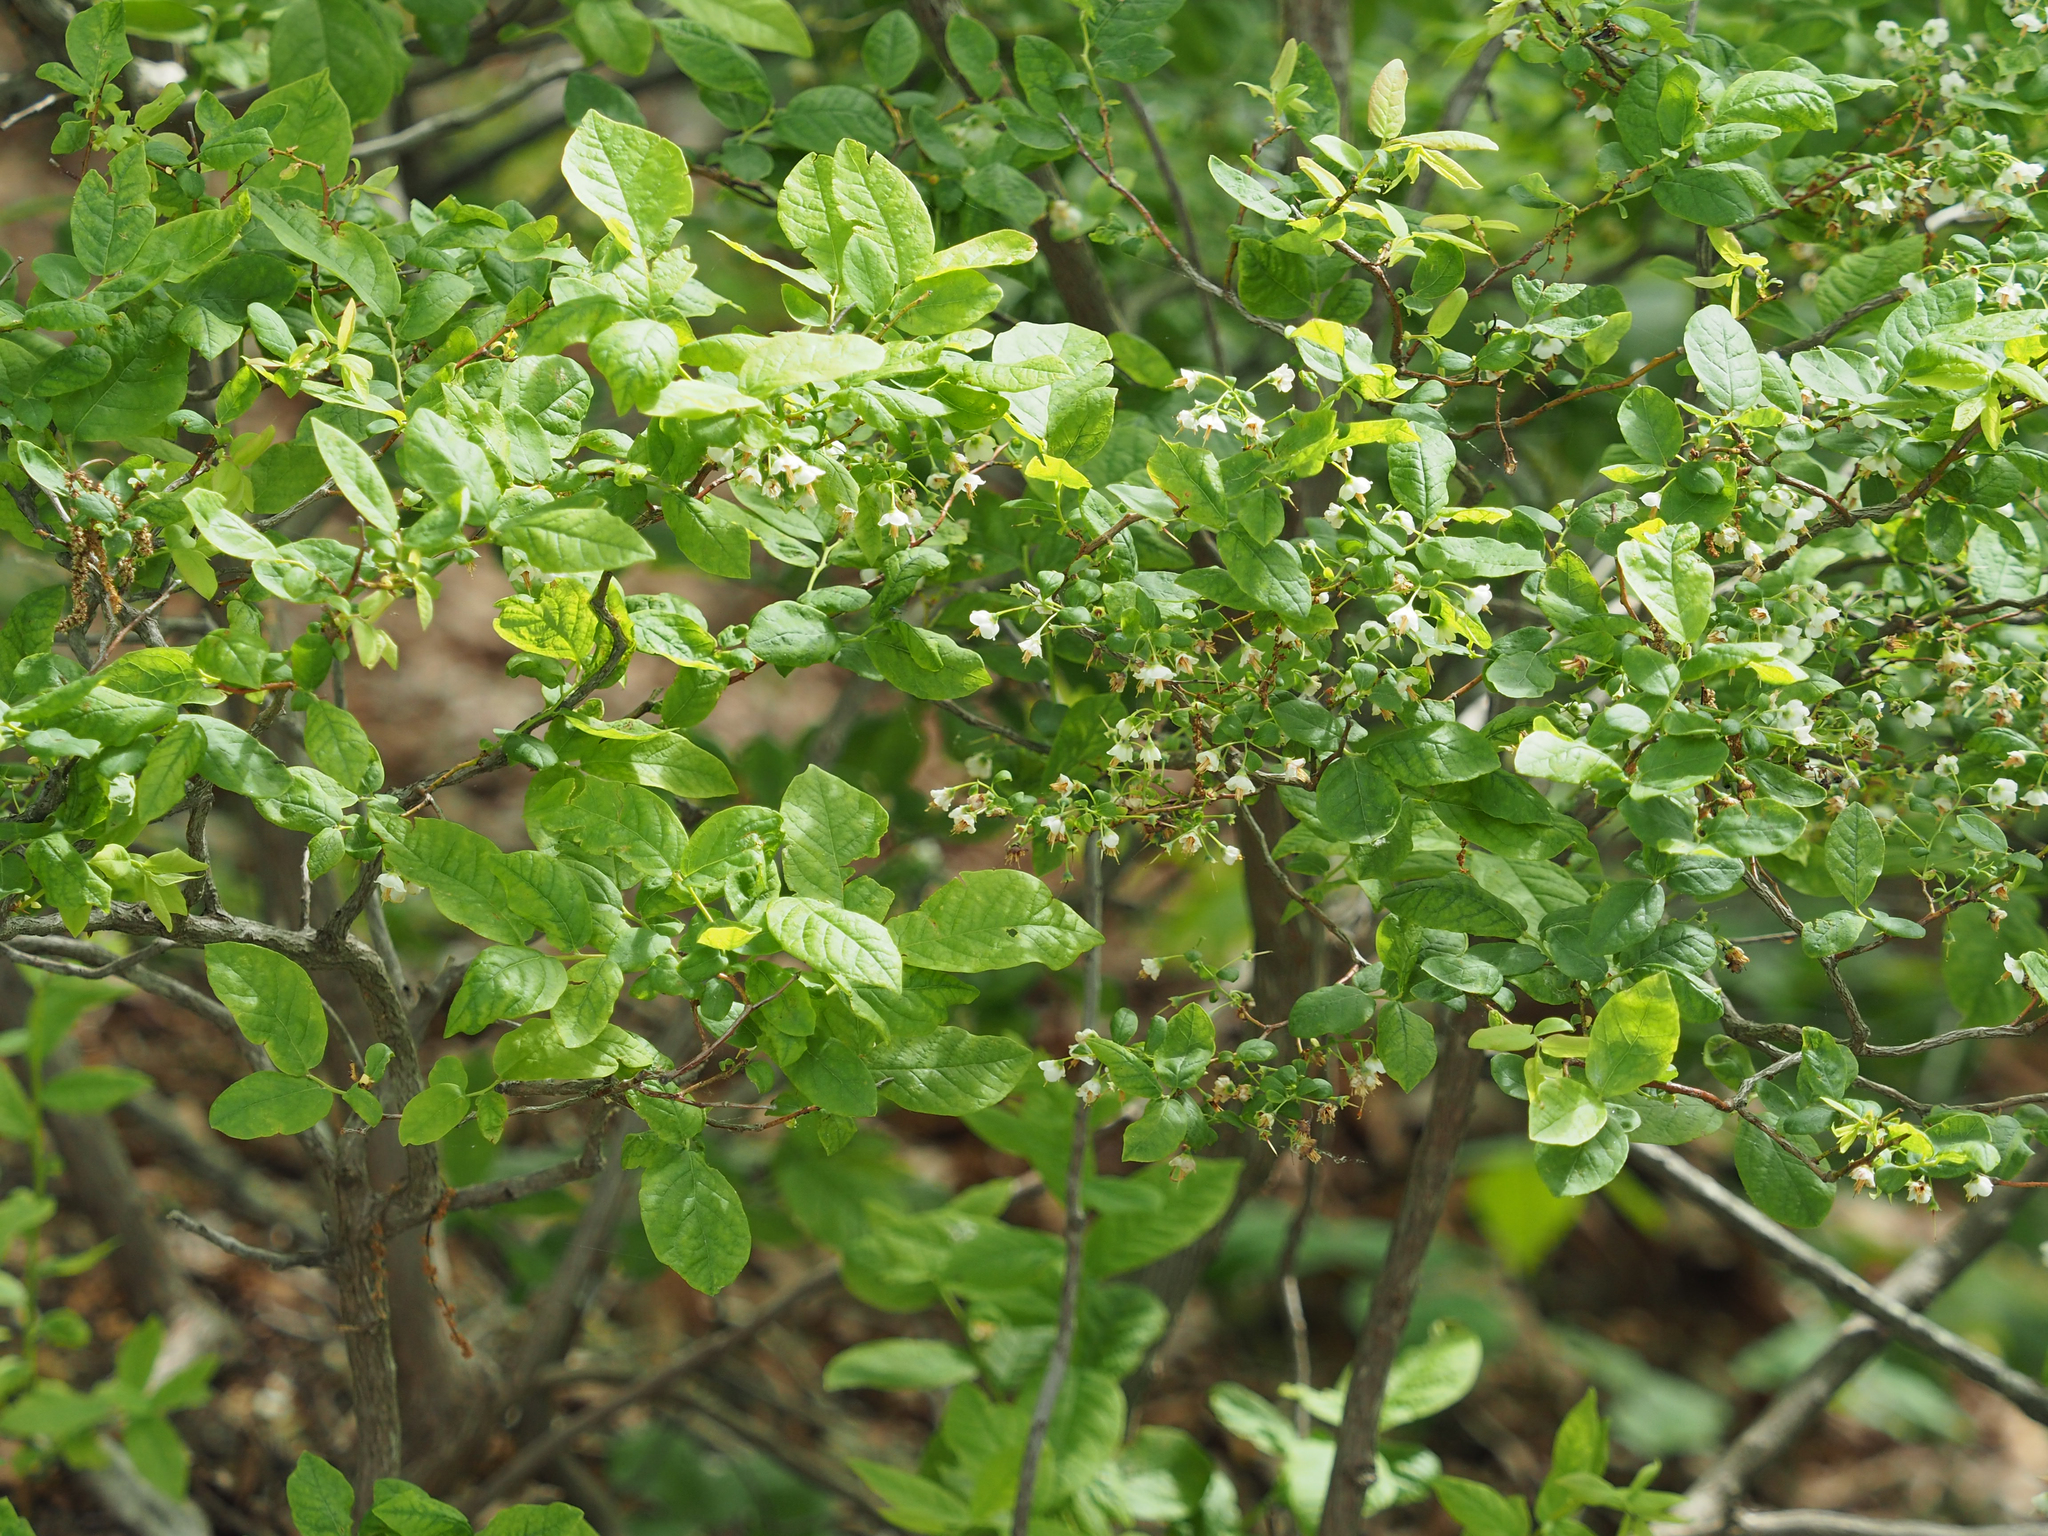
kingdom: Plantae
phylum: Tracheophyta
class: Magnoliopsida
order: Ericales
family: Ericaceae
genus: Vaccinium
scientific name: Vaccinium stamineum
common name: Deerberry
